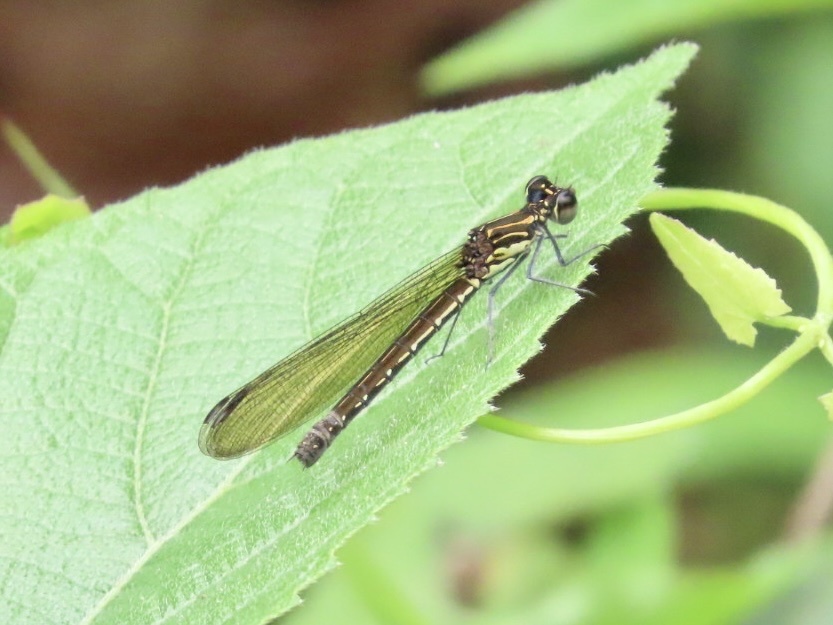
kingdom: Animalia
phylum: Arthropoda
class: Insecta
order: Odonata
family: Chlorocyphidae
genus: Heliocypha
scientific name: Heliocypha perforata
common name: Common blue jewel
